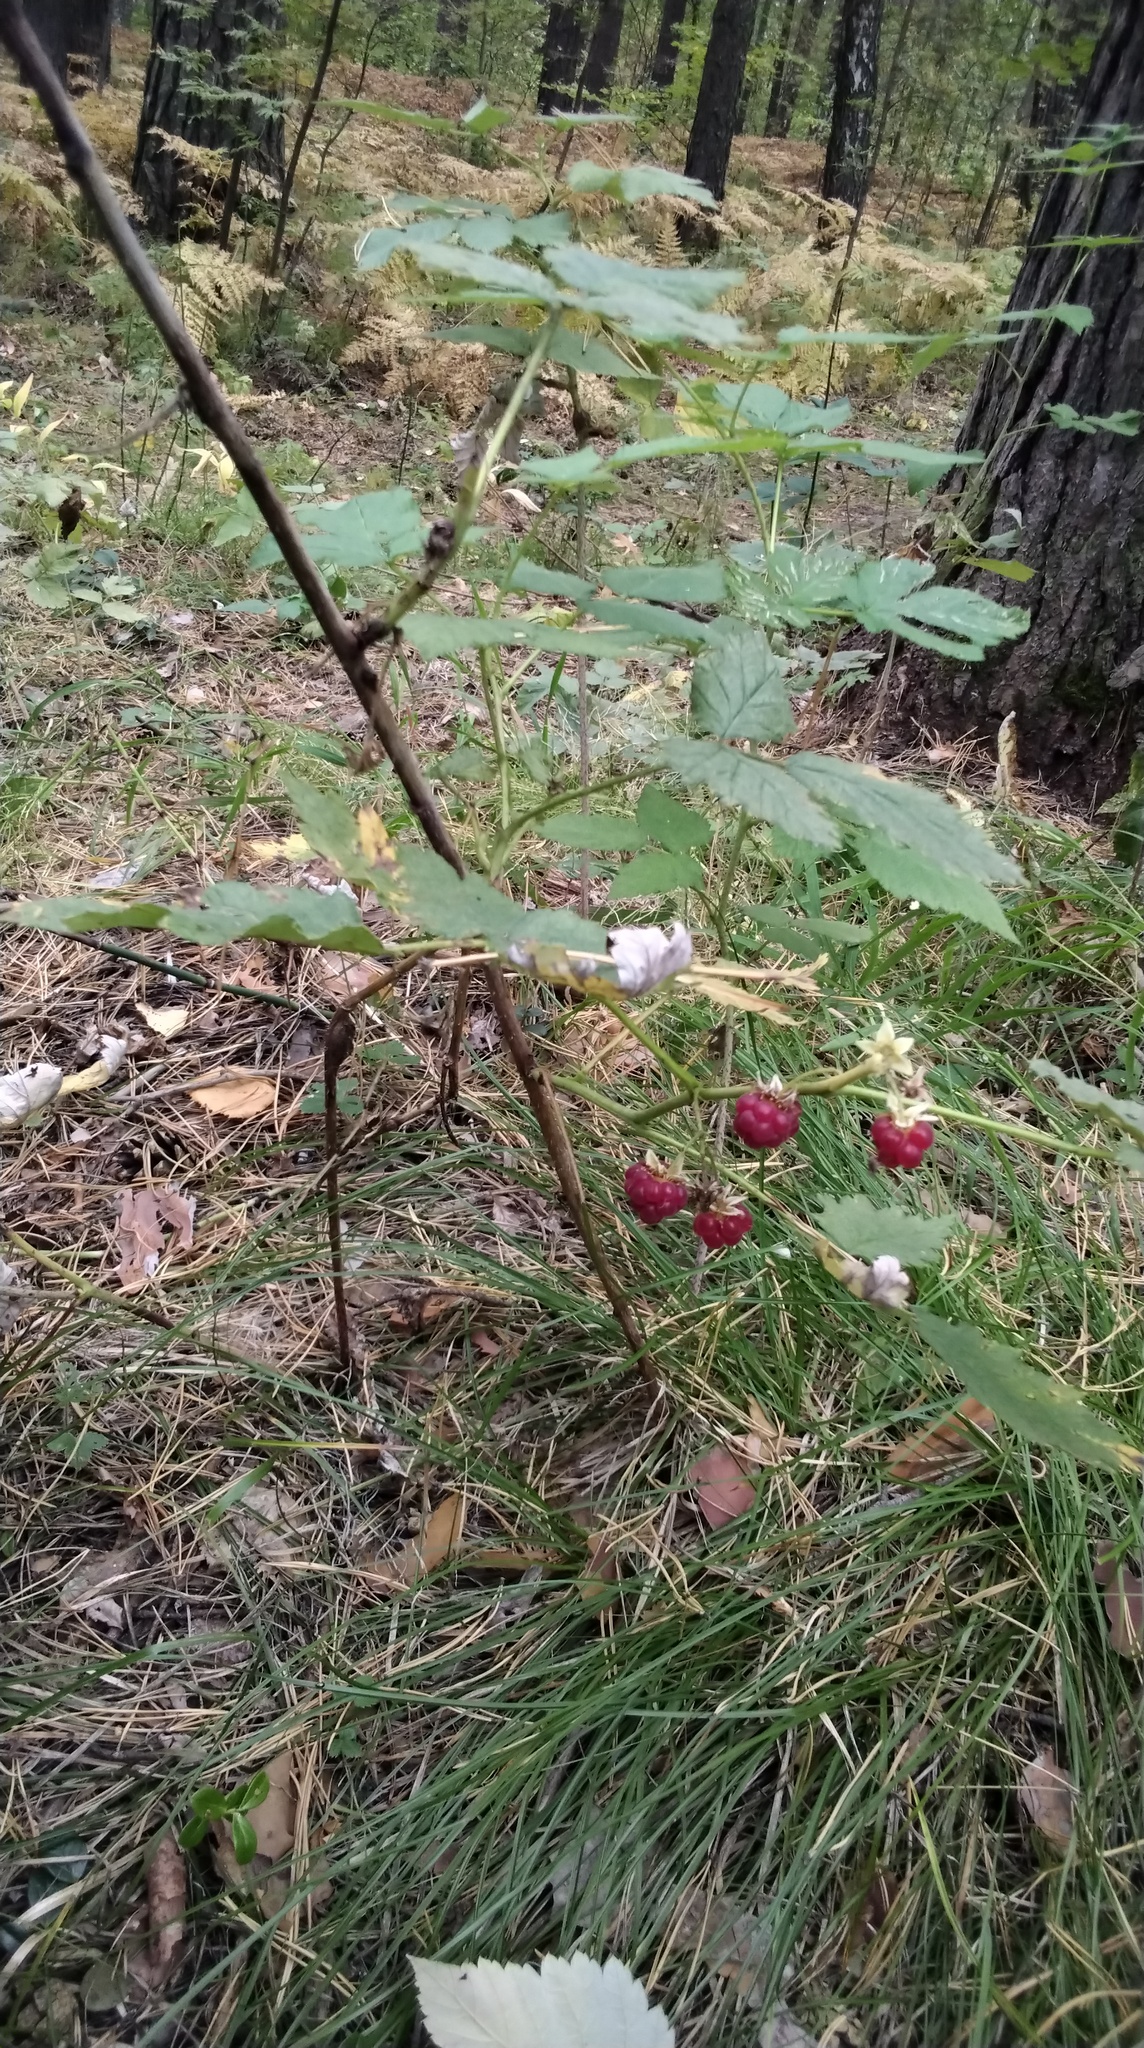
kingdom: Plantae
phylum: Tracheophyta
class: Magnoliopsida
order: Rosales
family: Rosaceae
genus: Rubus
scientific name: Rubus idaeus
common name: Raspberry
